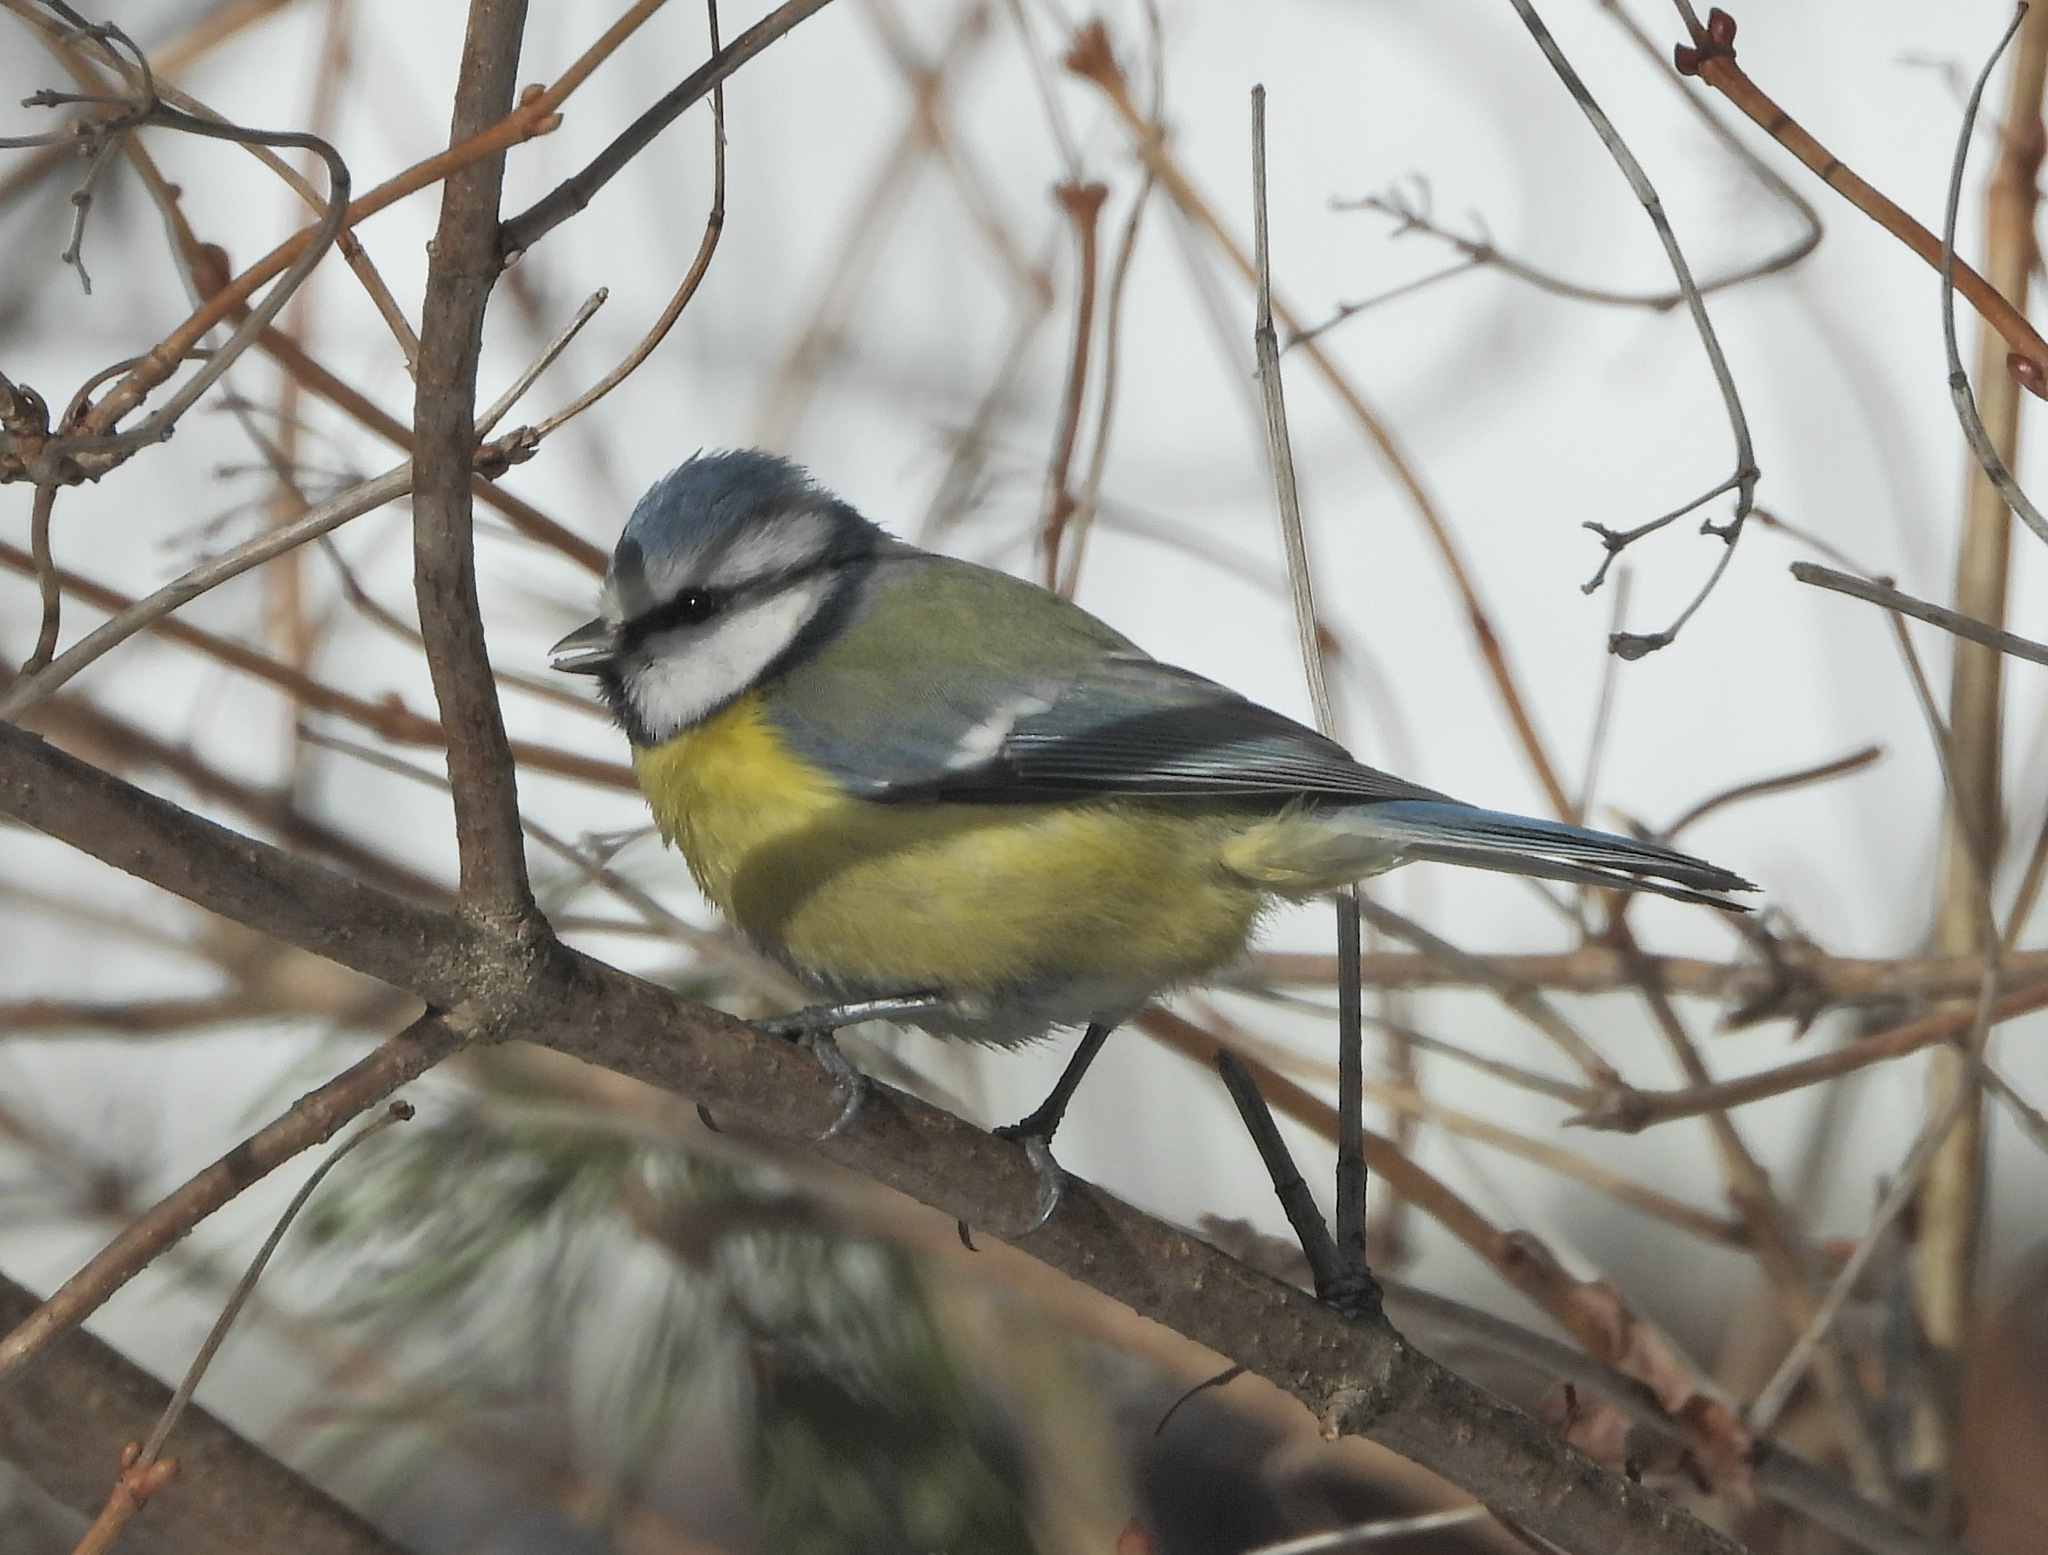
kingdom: Animalia
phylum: Chordata
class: Aves
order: Passeriformes
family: Paridae
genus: Cyanistes
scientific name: Cyanistes caeruleus
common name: Eurasian blue tit
